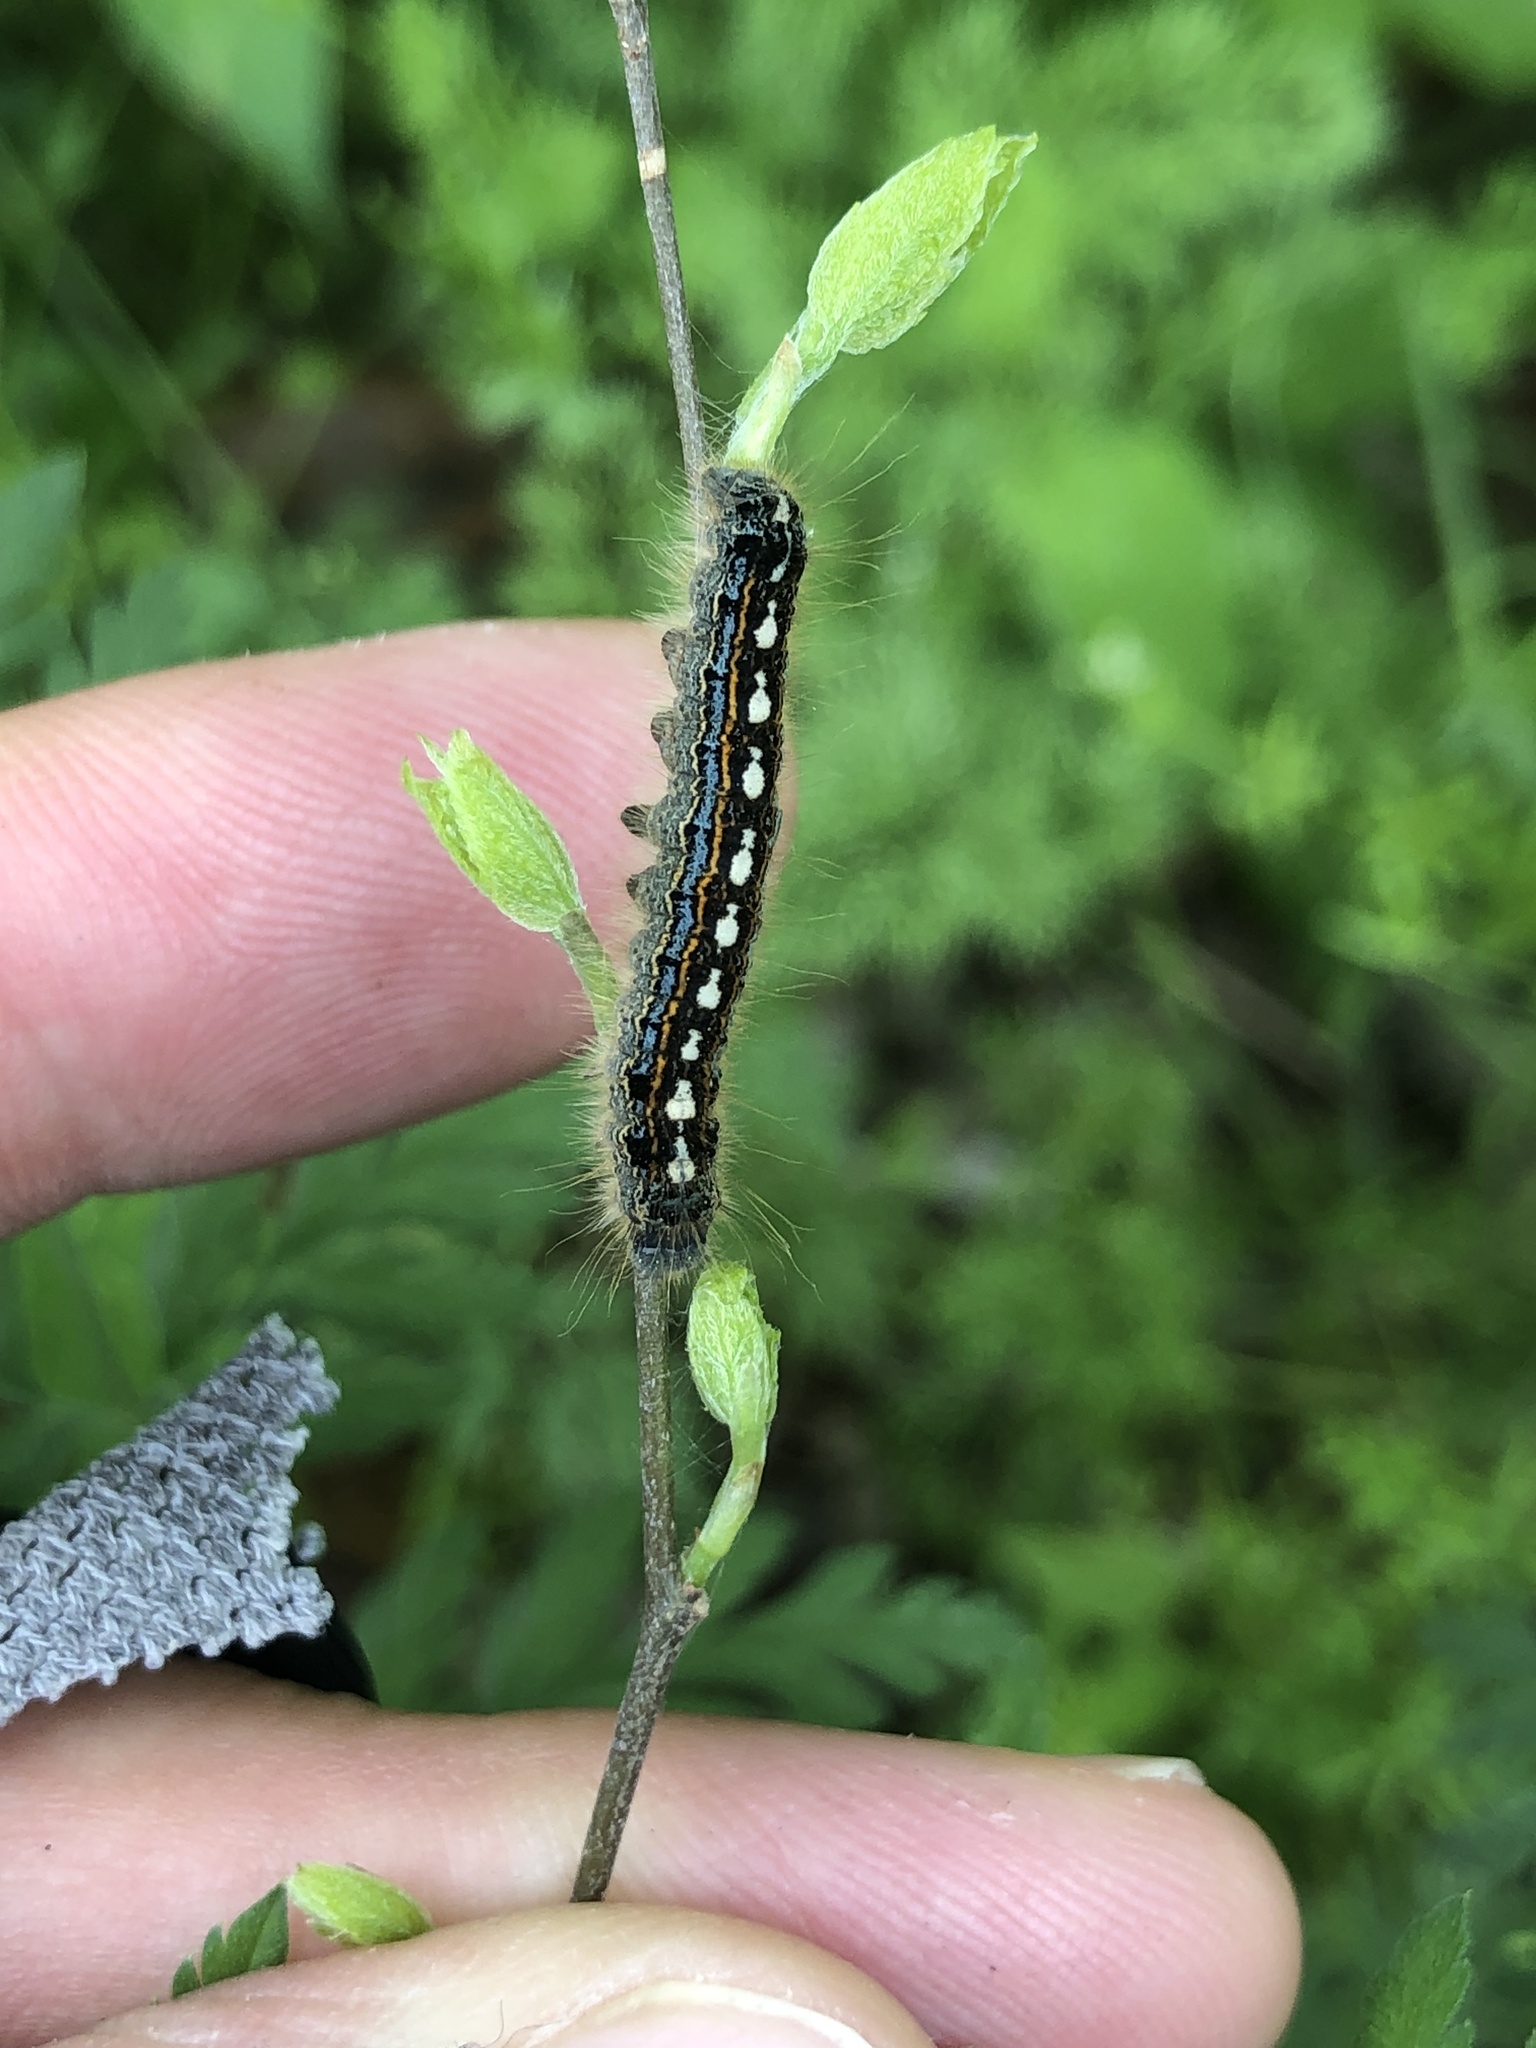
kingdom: Animalia
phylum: Arthropoda
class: Insecta
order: Lepidoptera
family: Lasiocampidae
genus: Malacosoma
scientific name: Malacosoma disstria
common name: Forest tent caterpillar
